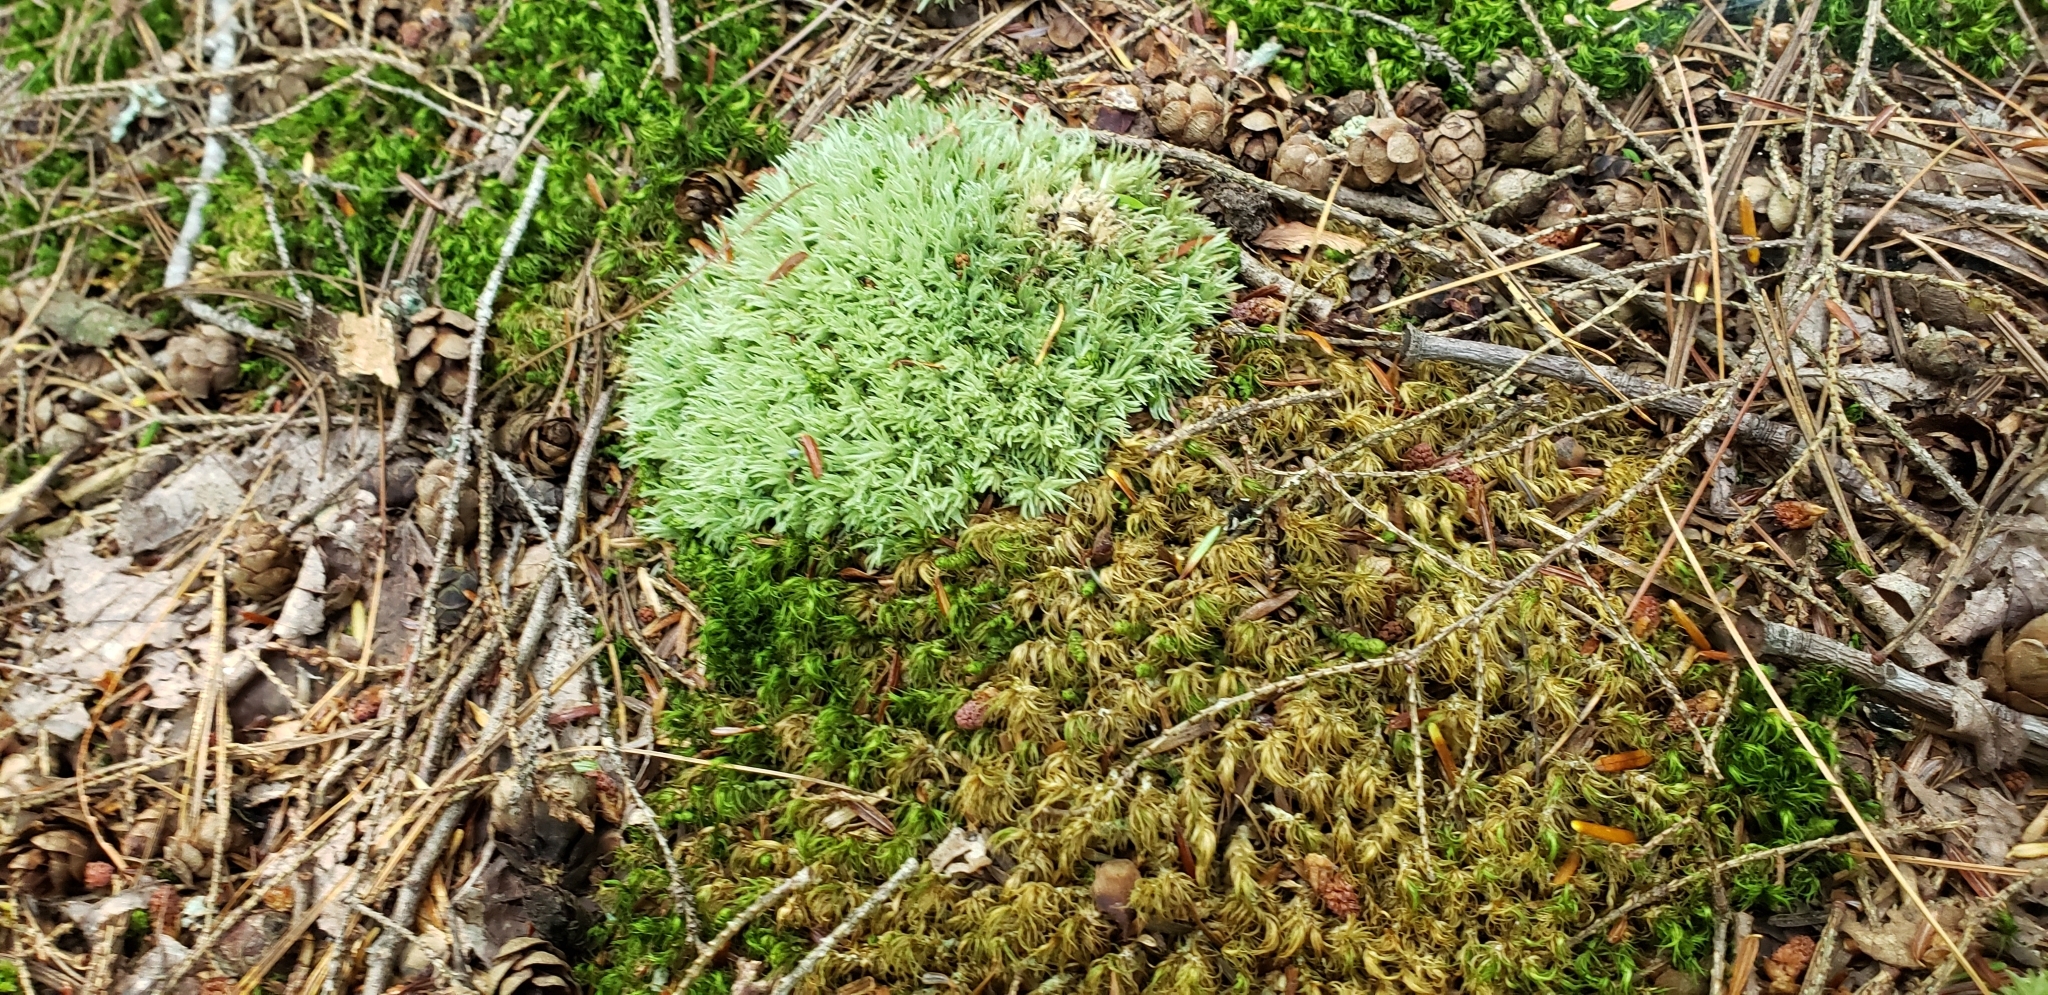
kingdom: Plantae
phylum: Bryophyta
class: Bryopsida
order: Dicranales
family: Leucobryaceae
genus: Leucobryum
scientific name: Leucobryum glaucum
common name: Large white-moss
